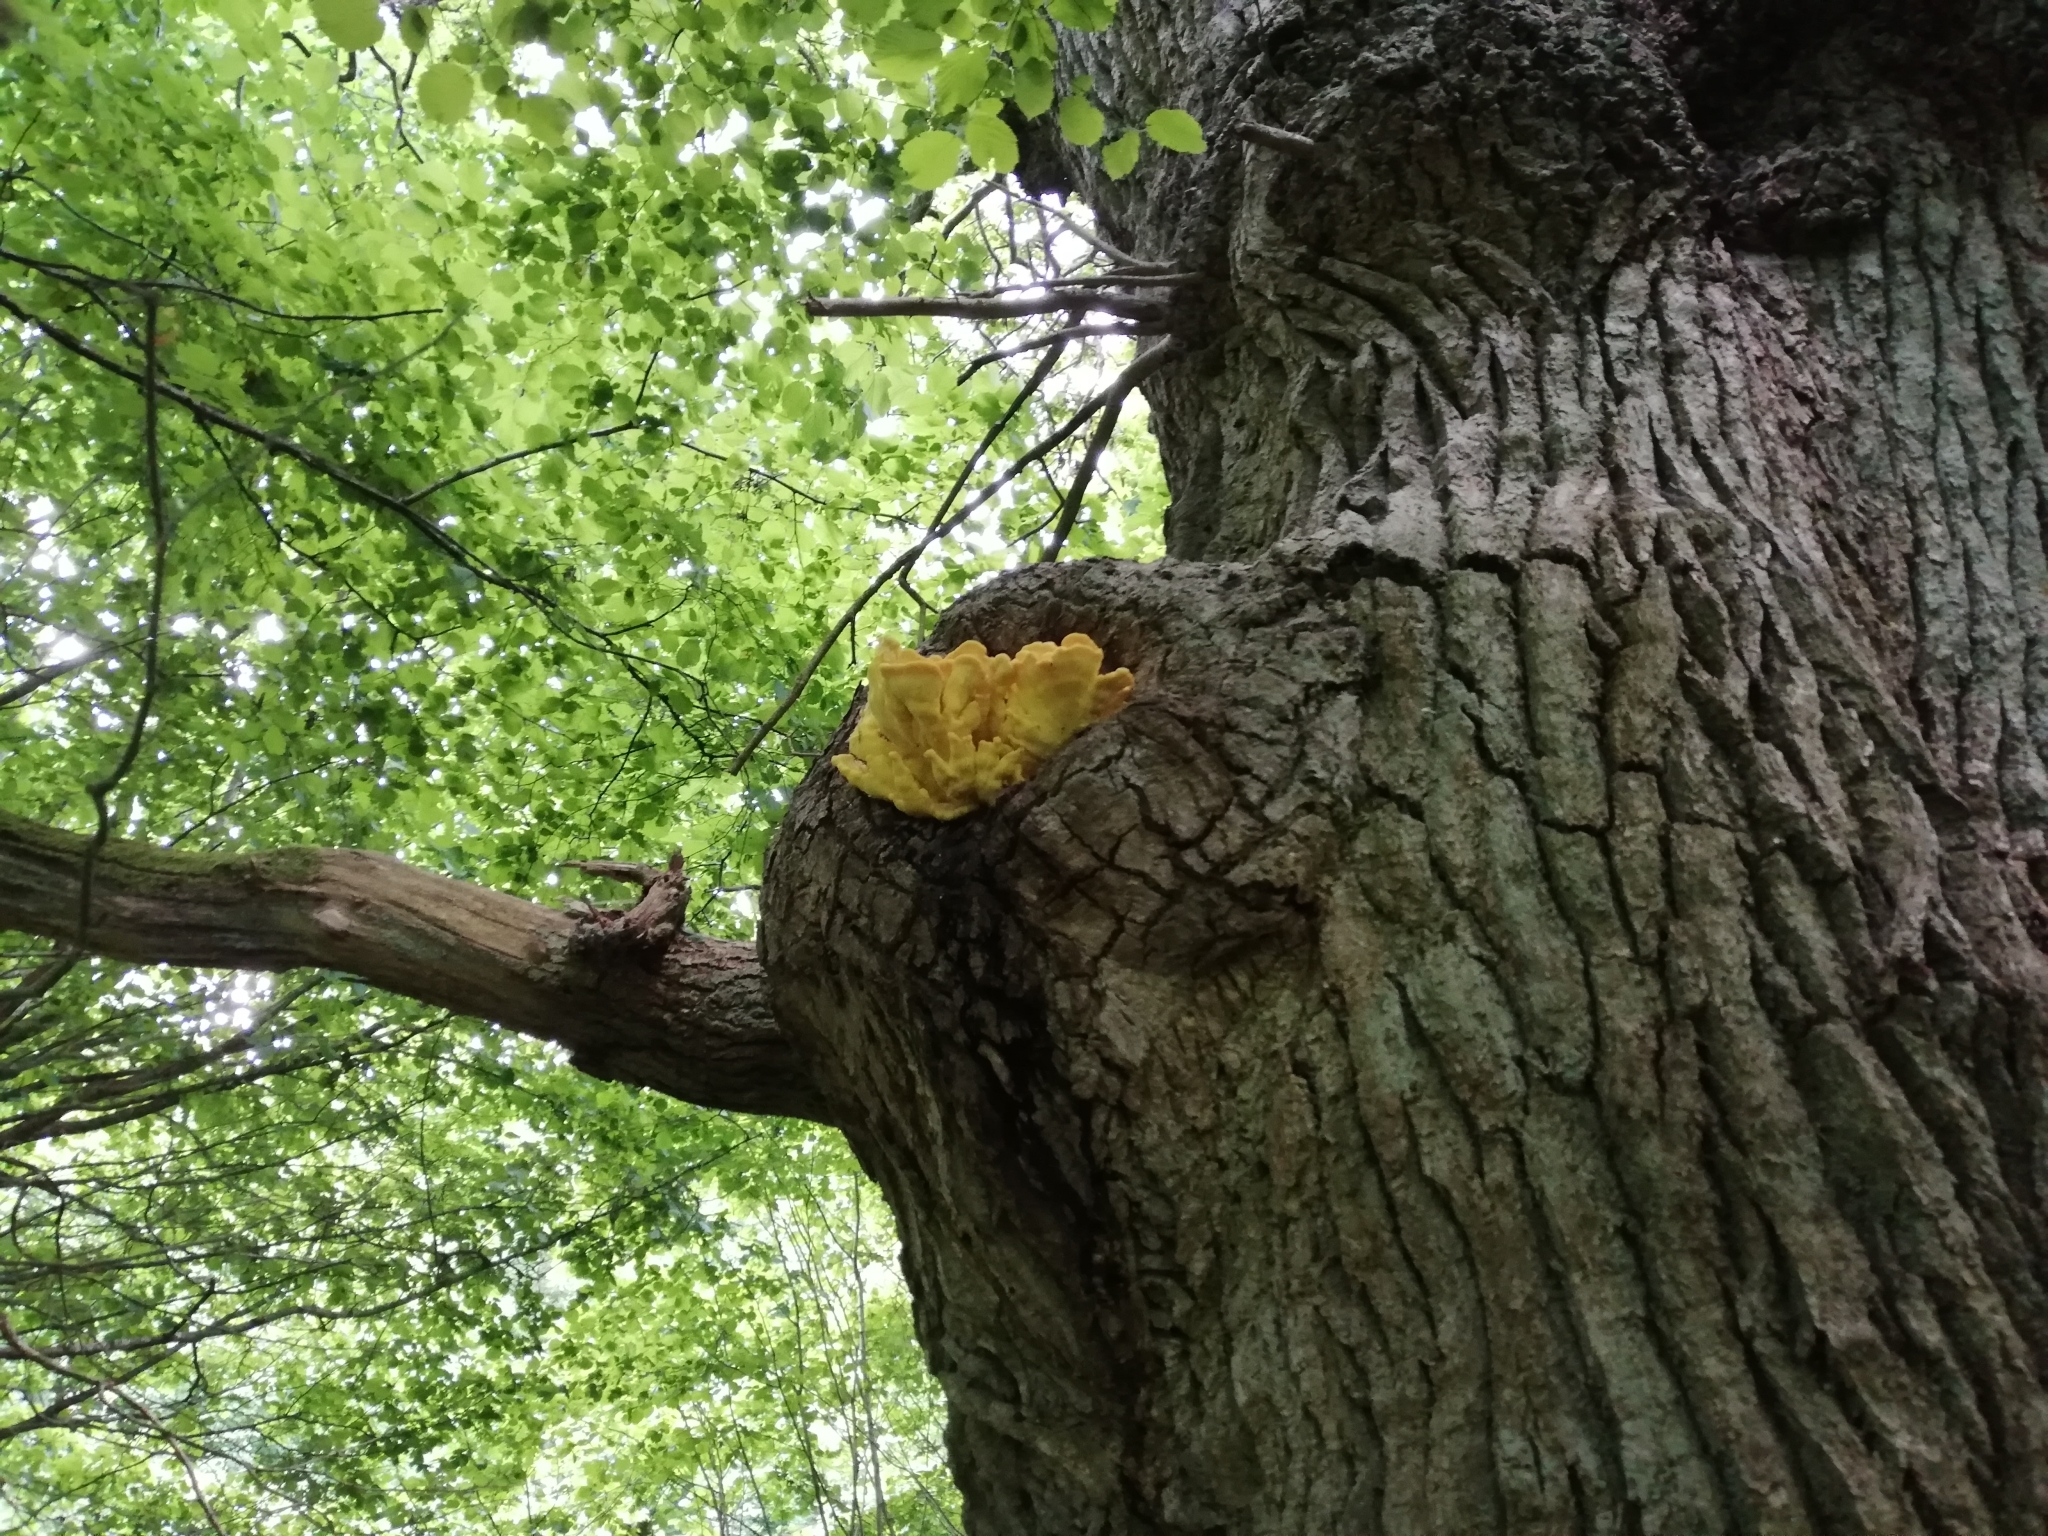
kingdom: Fungi
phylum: Basidiomycota
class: Agaricomycetes
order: Polyporales
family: Laetiporaceae
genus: Laetiporus
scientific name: Laetiporus sulphureus
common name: Chicken of the woods
